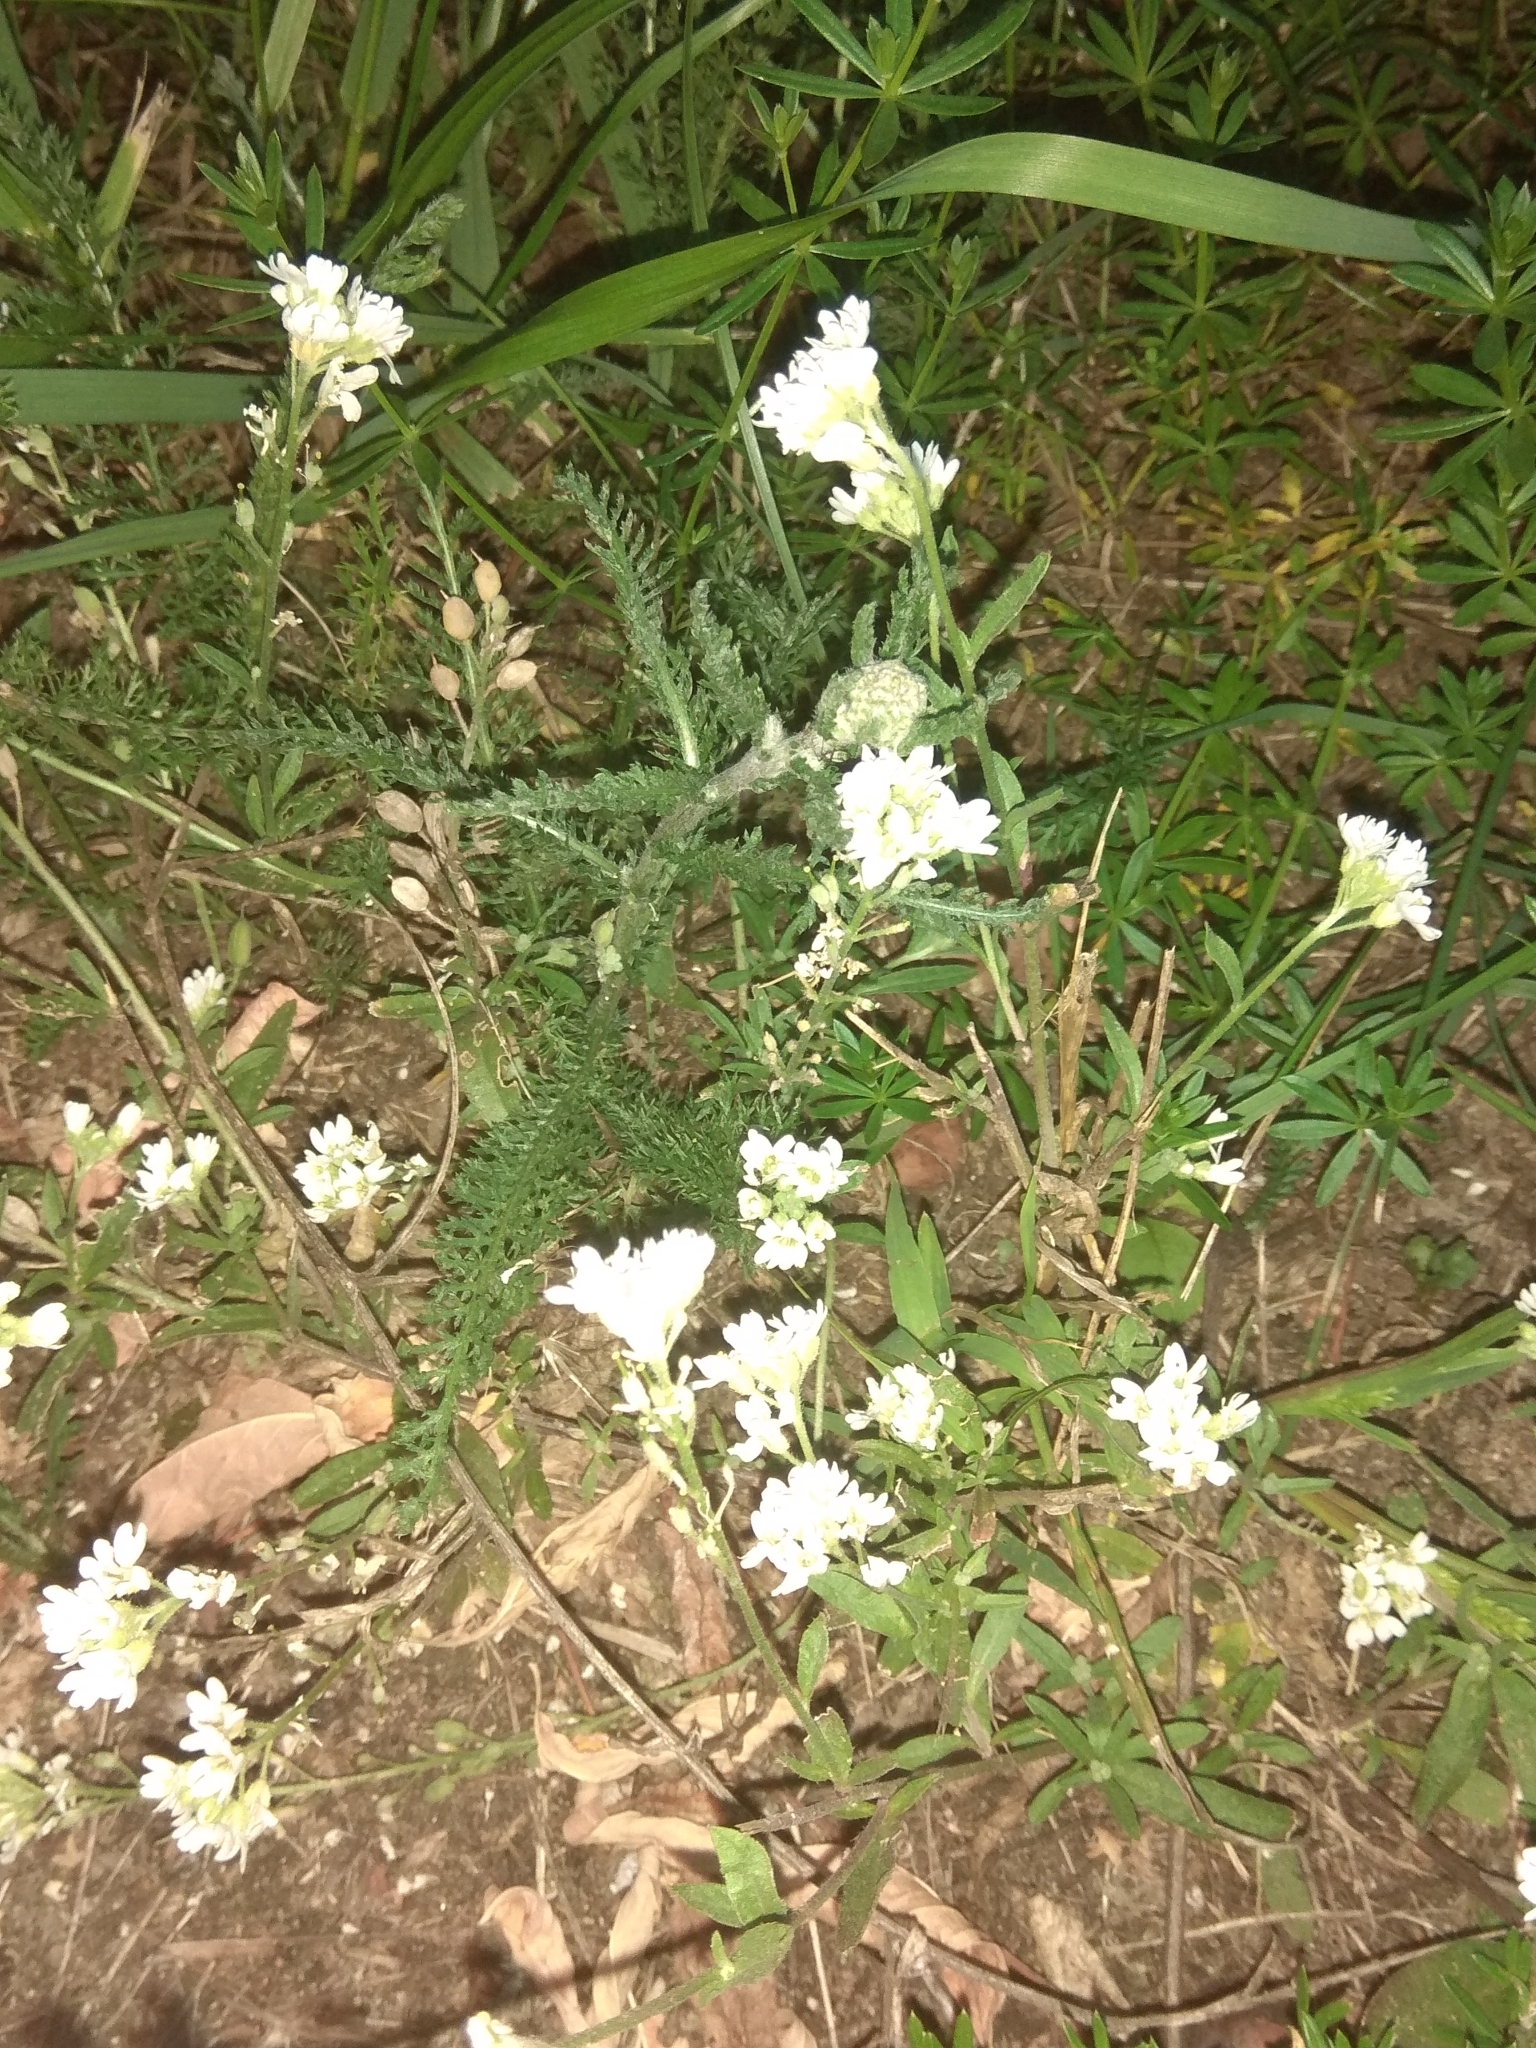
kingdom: Plantae
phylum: Tracheophyta
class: Magnoliopsida
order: Brassicales
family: Brassicaceae
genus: Berteroa
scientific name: Berteroa incana
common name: Hoary alison
